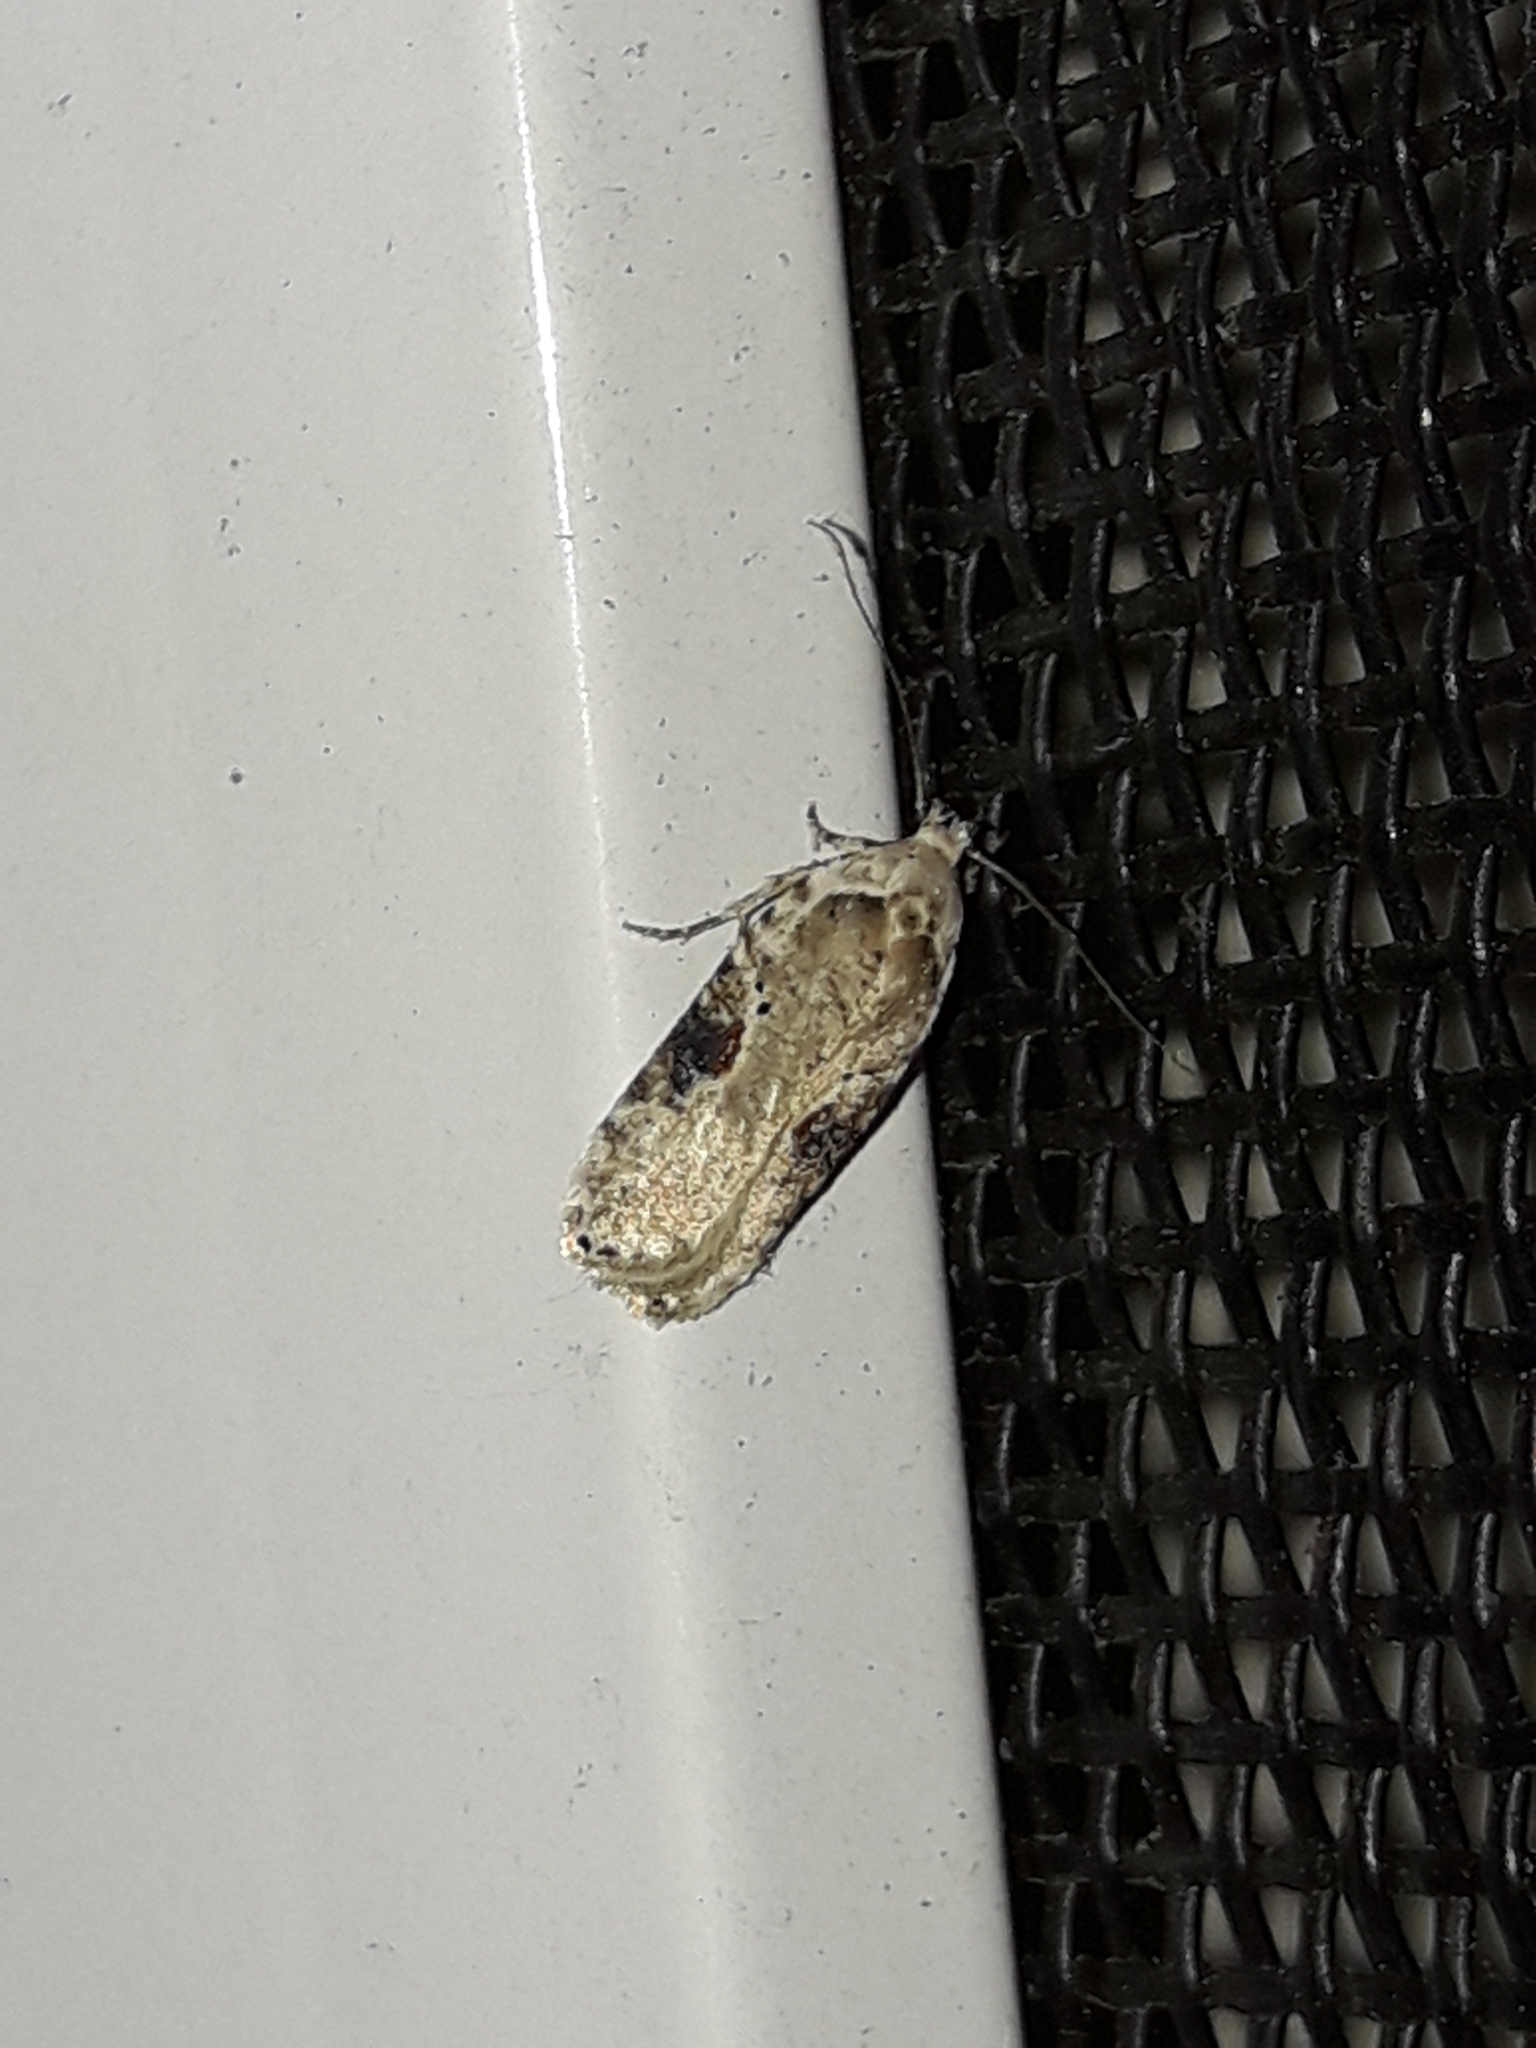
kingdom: Animalia
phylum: Arthropoda
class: Insecta
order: Lepidoptera
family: Depressariidae
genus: Agonopterix
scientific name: Agonopterix alstroemeriana
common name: Moth
